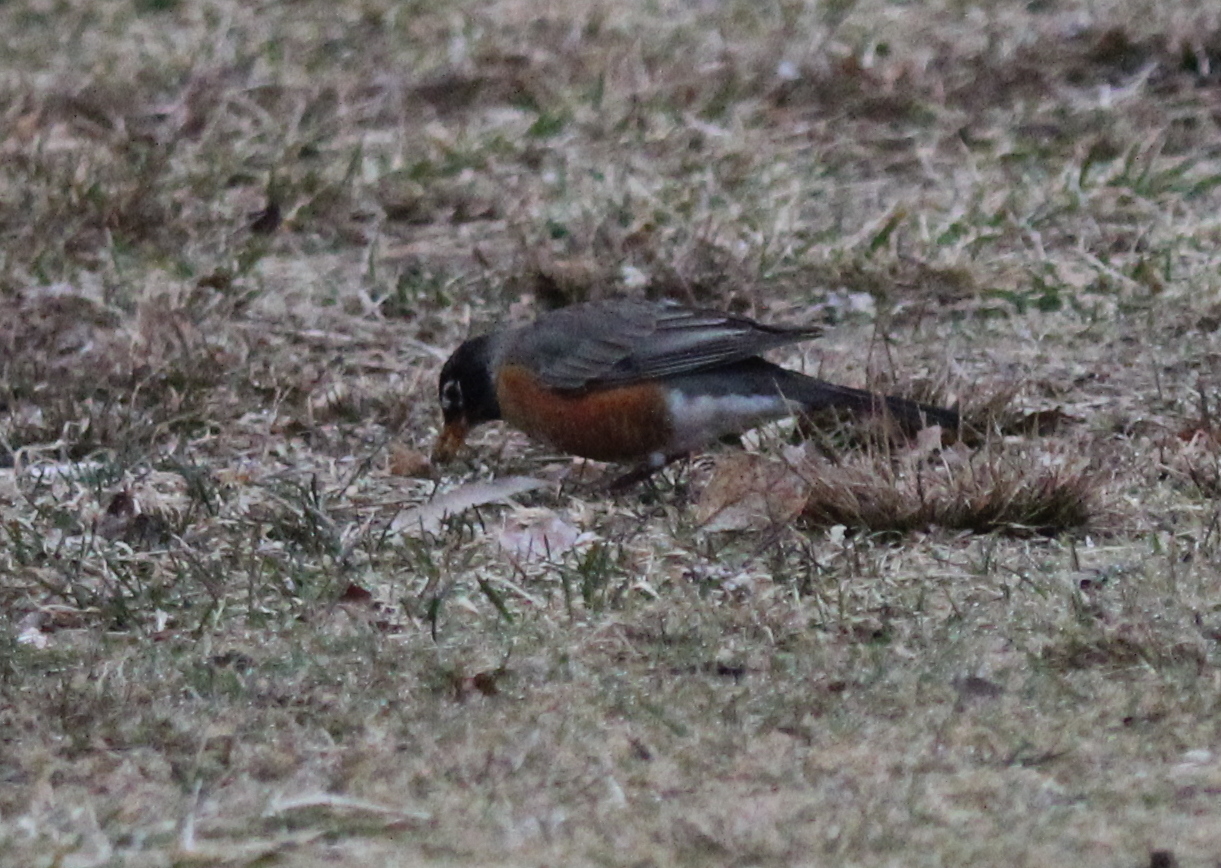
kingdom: Animalia
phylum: Chordata
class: Aves
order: Passeriformes
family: Turdidae
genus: Turdus
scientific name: Turdus migratorius
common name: American robin
